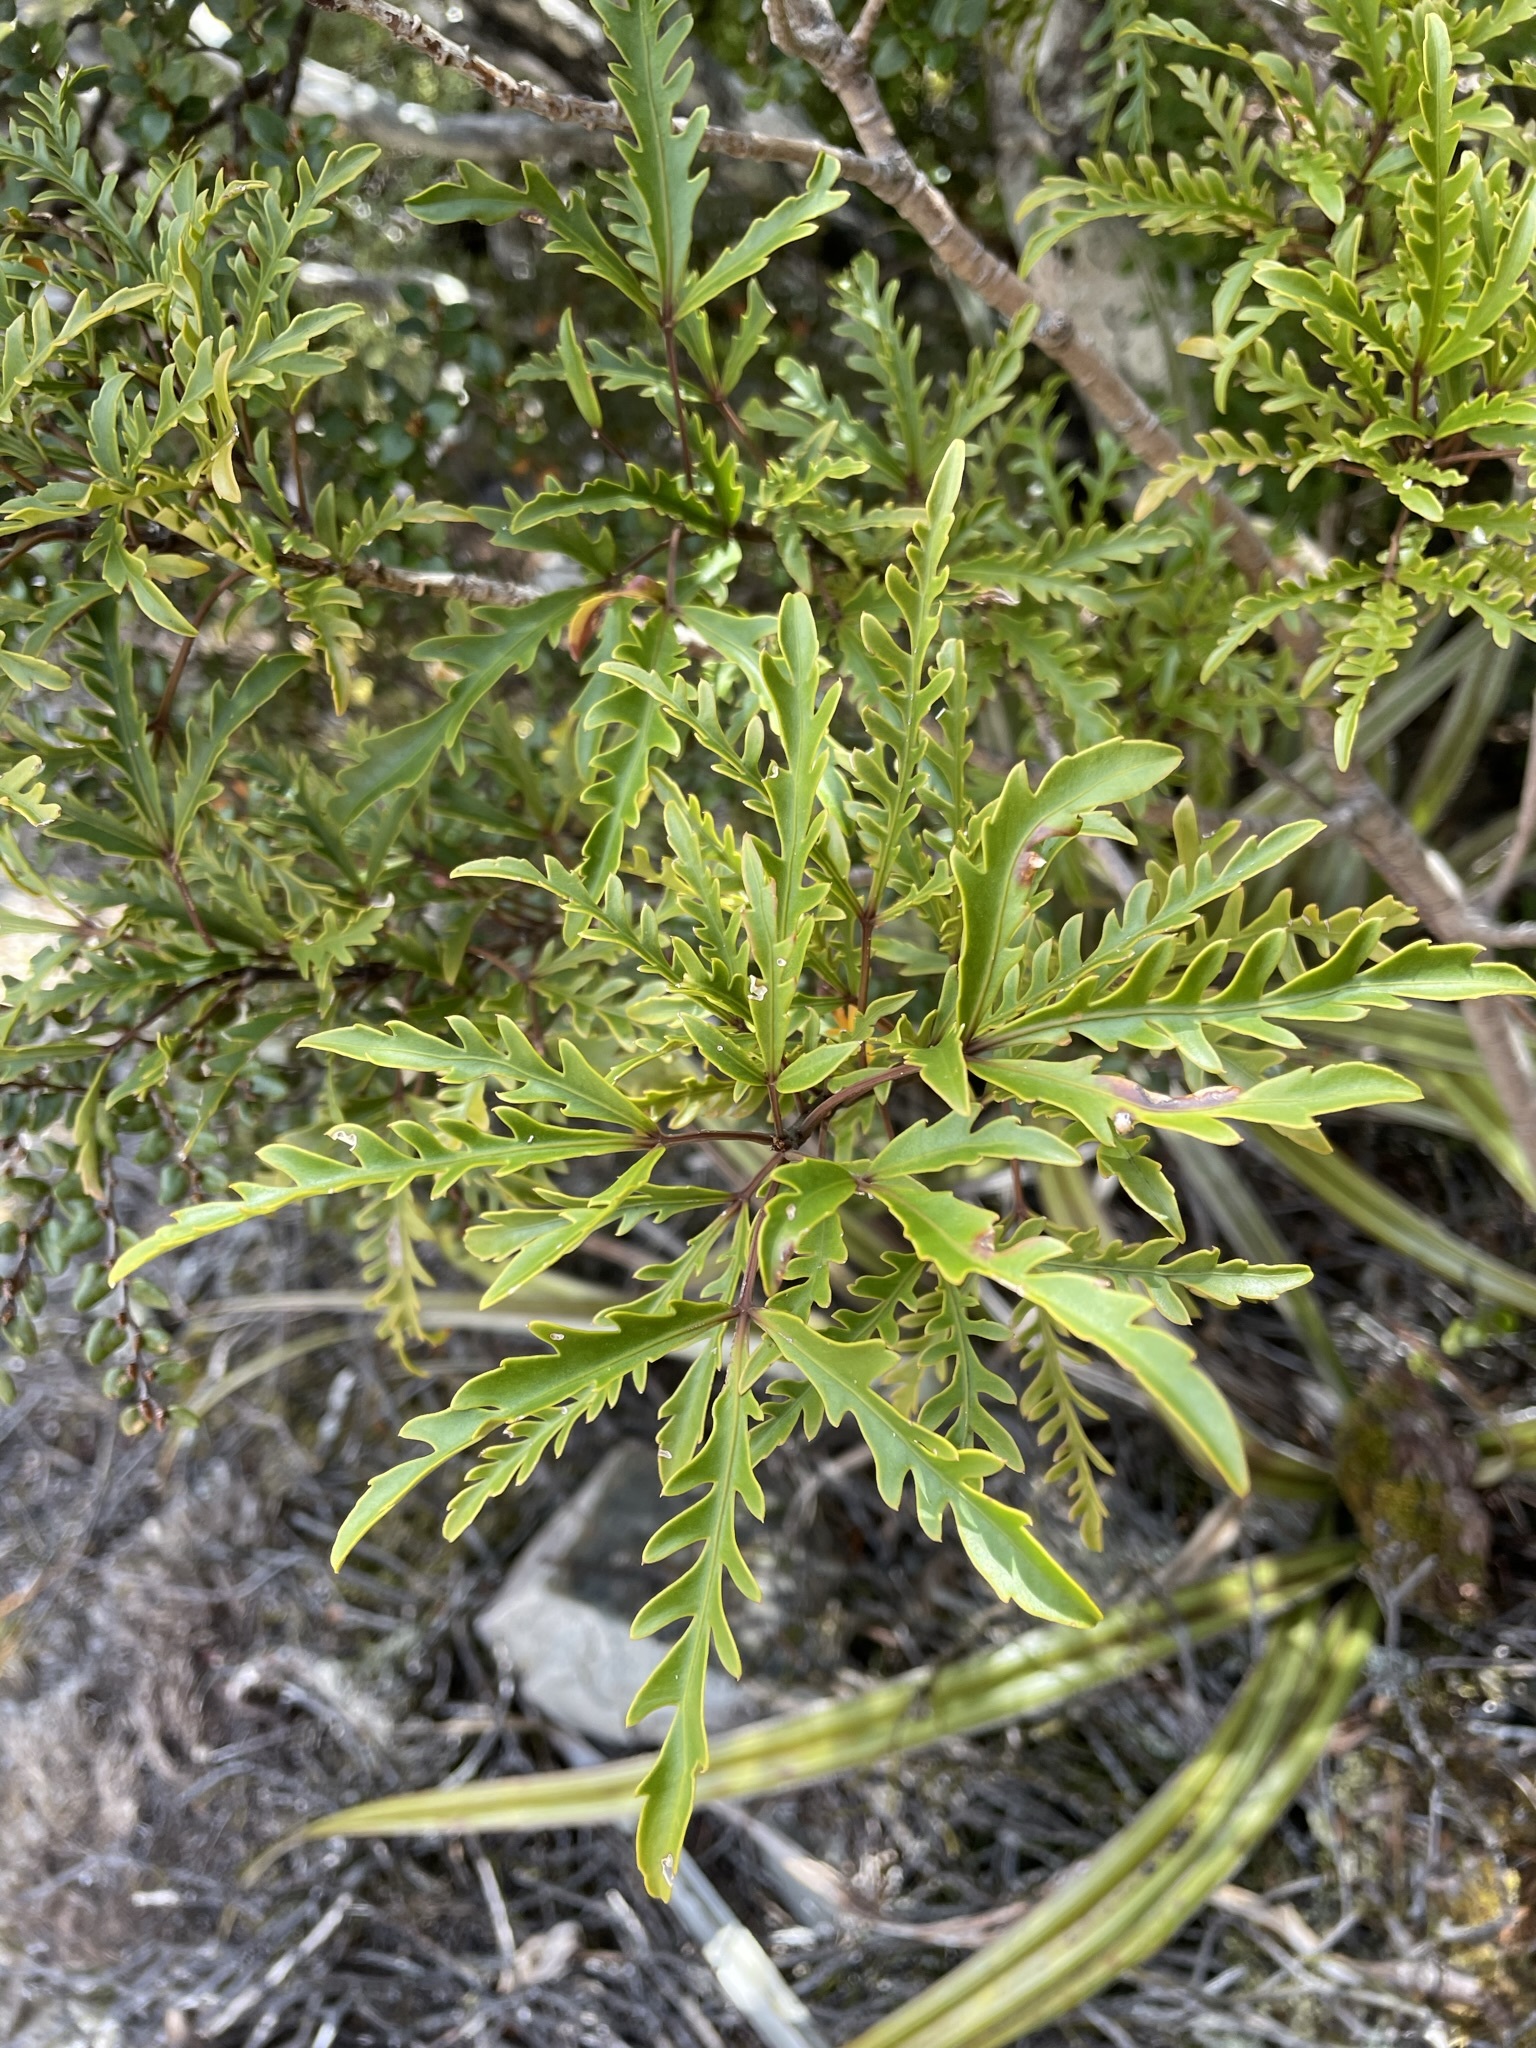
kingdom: Plantae
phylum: Tracheophyta
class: Magnoliopsida
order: Apiales
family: Araliaceae
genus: Raukaua
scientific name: Raukaua simplex
